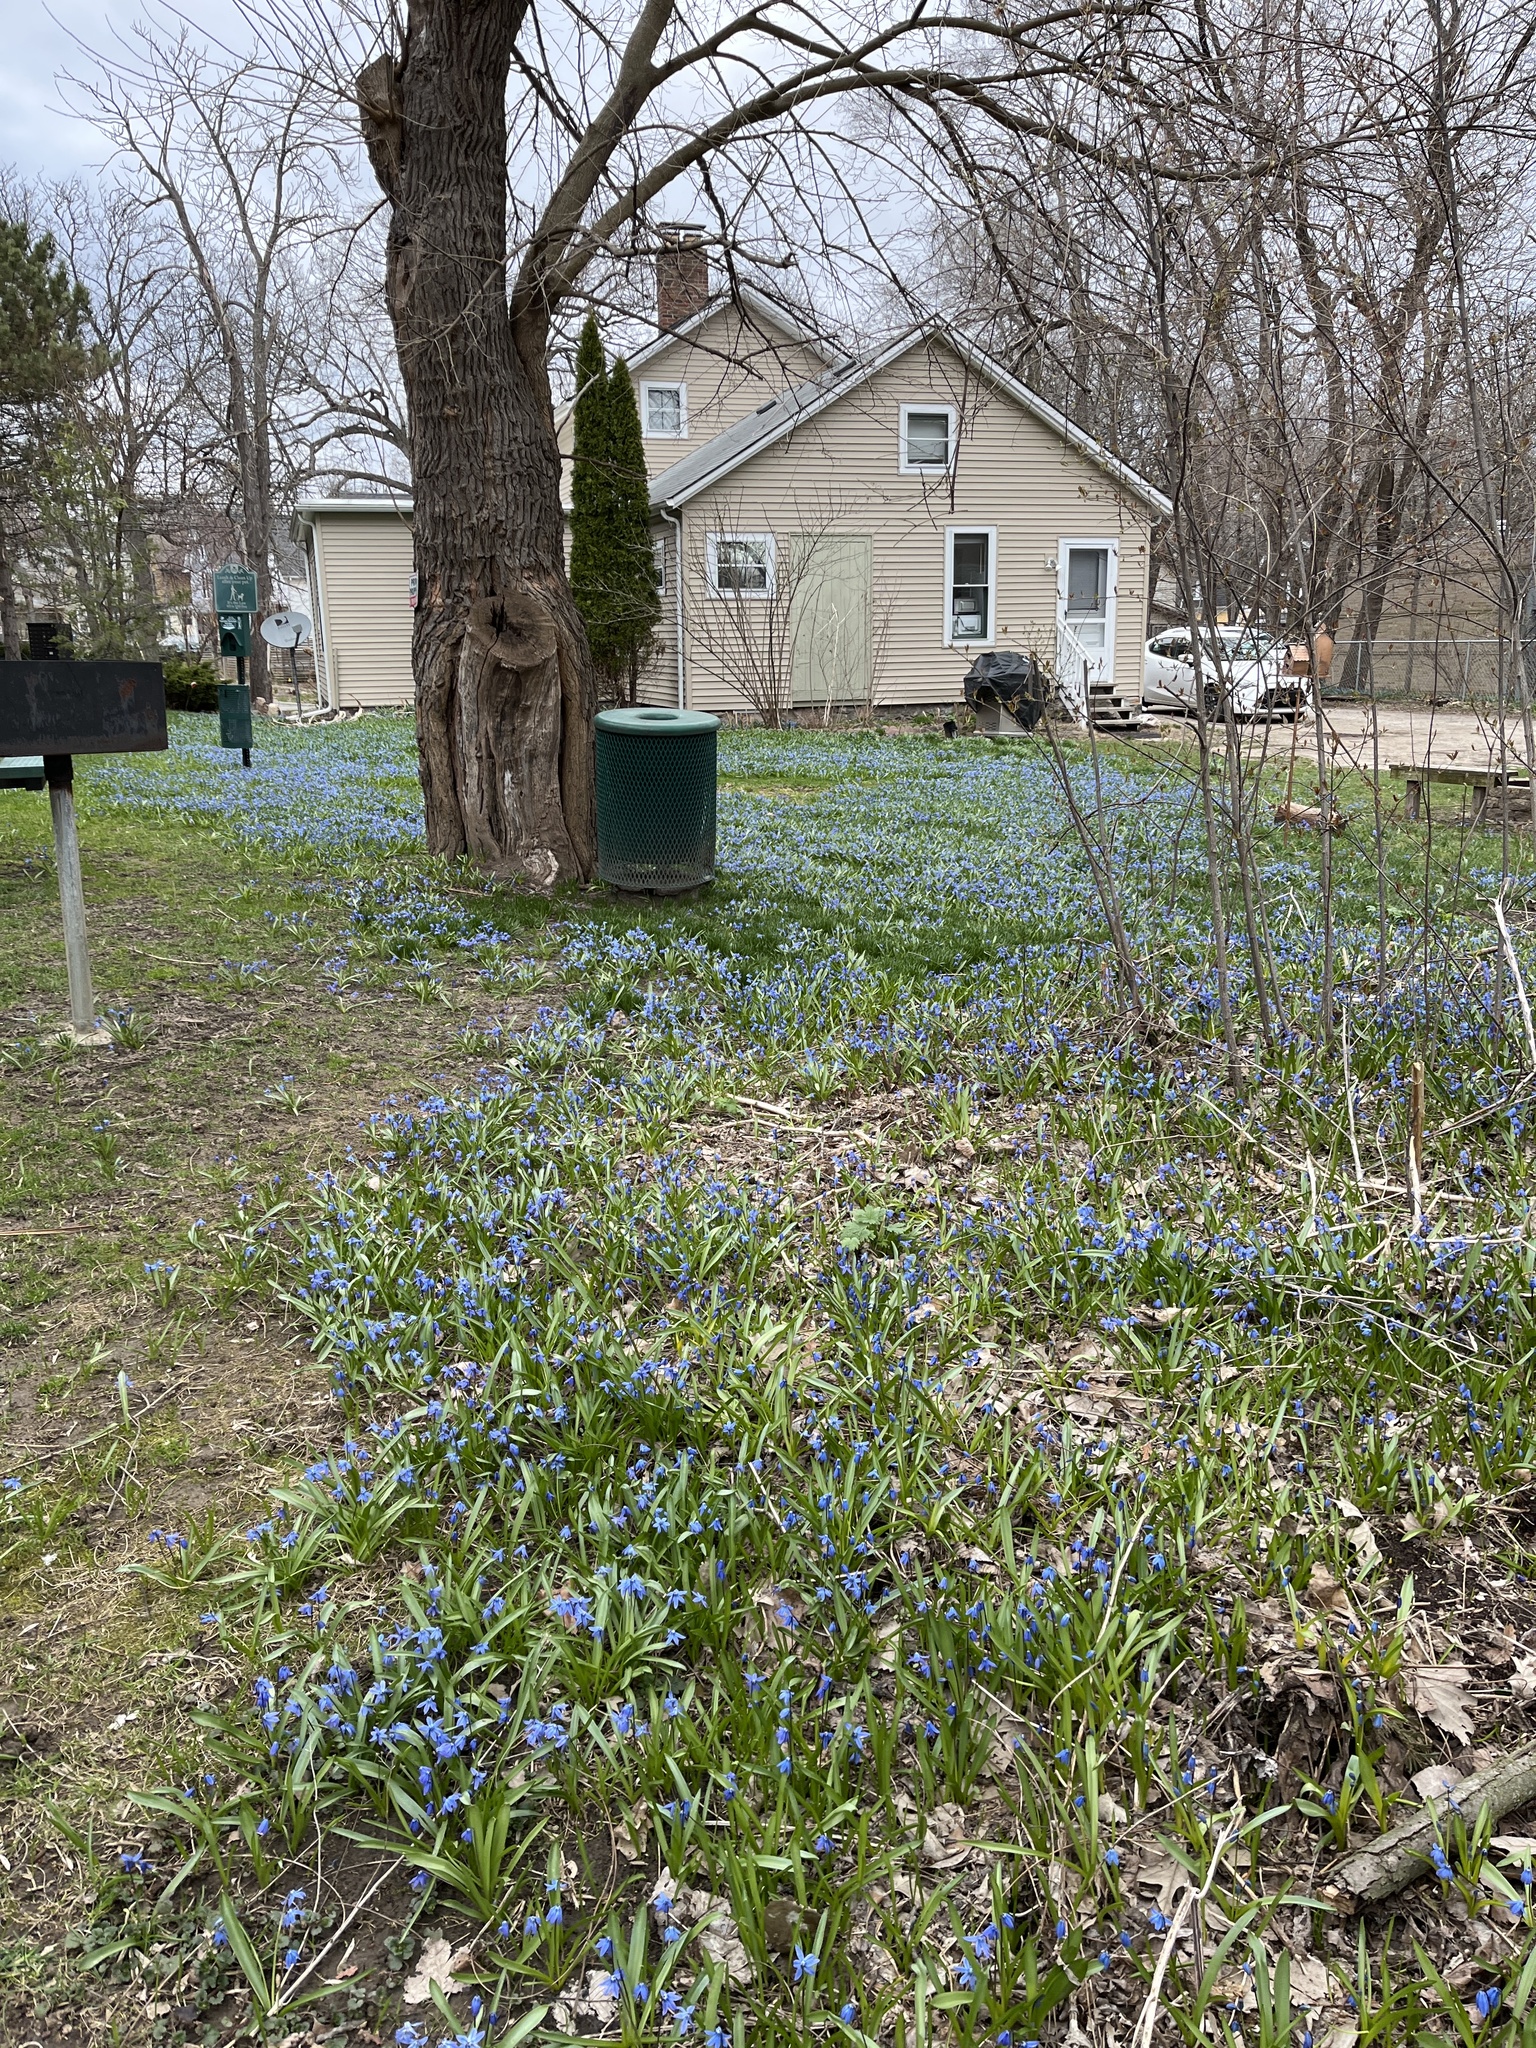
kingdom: Plantae
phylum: Tracheophyta
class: Liliopsida
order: Asparagales
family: Asparagaceae
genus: Scilla
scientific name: Scilla siberica
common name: Siberian squill
